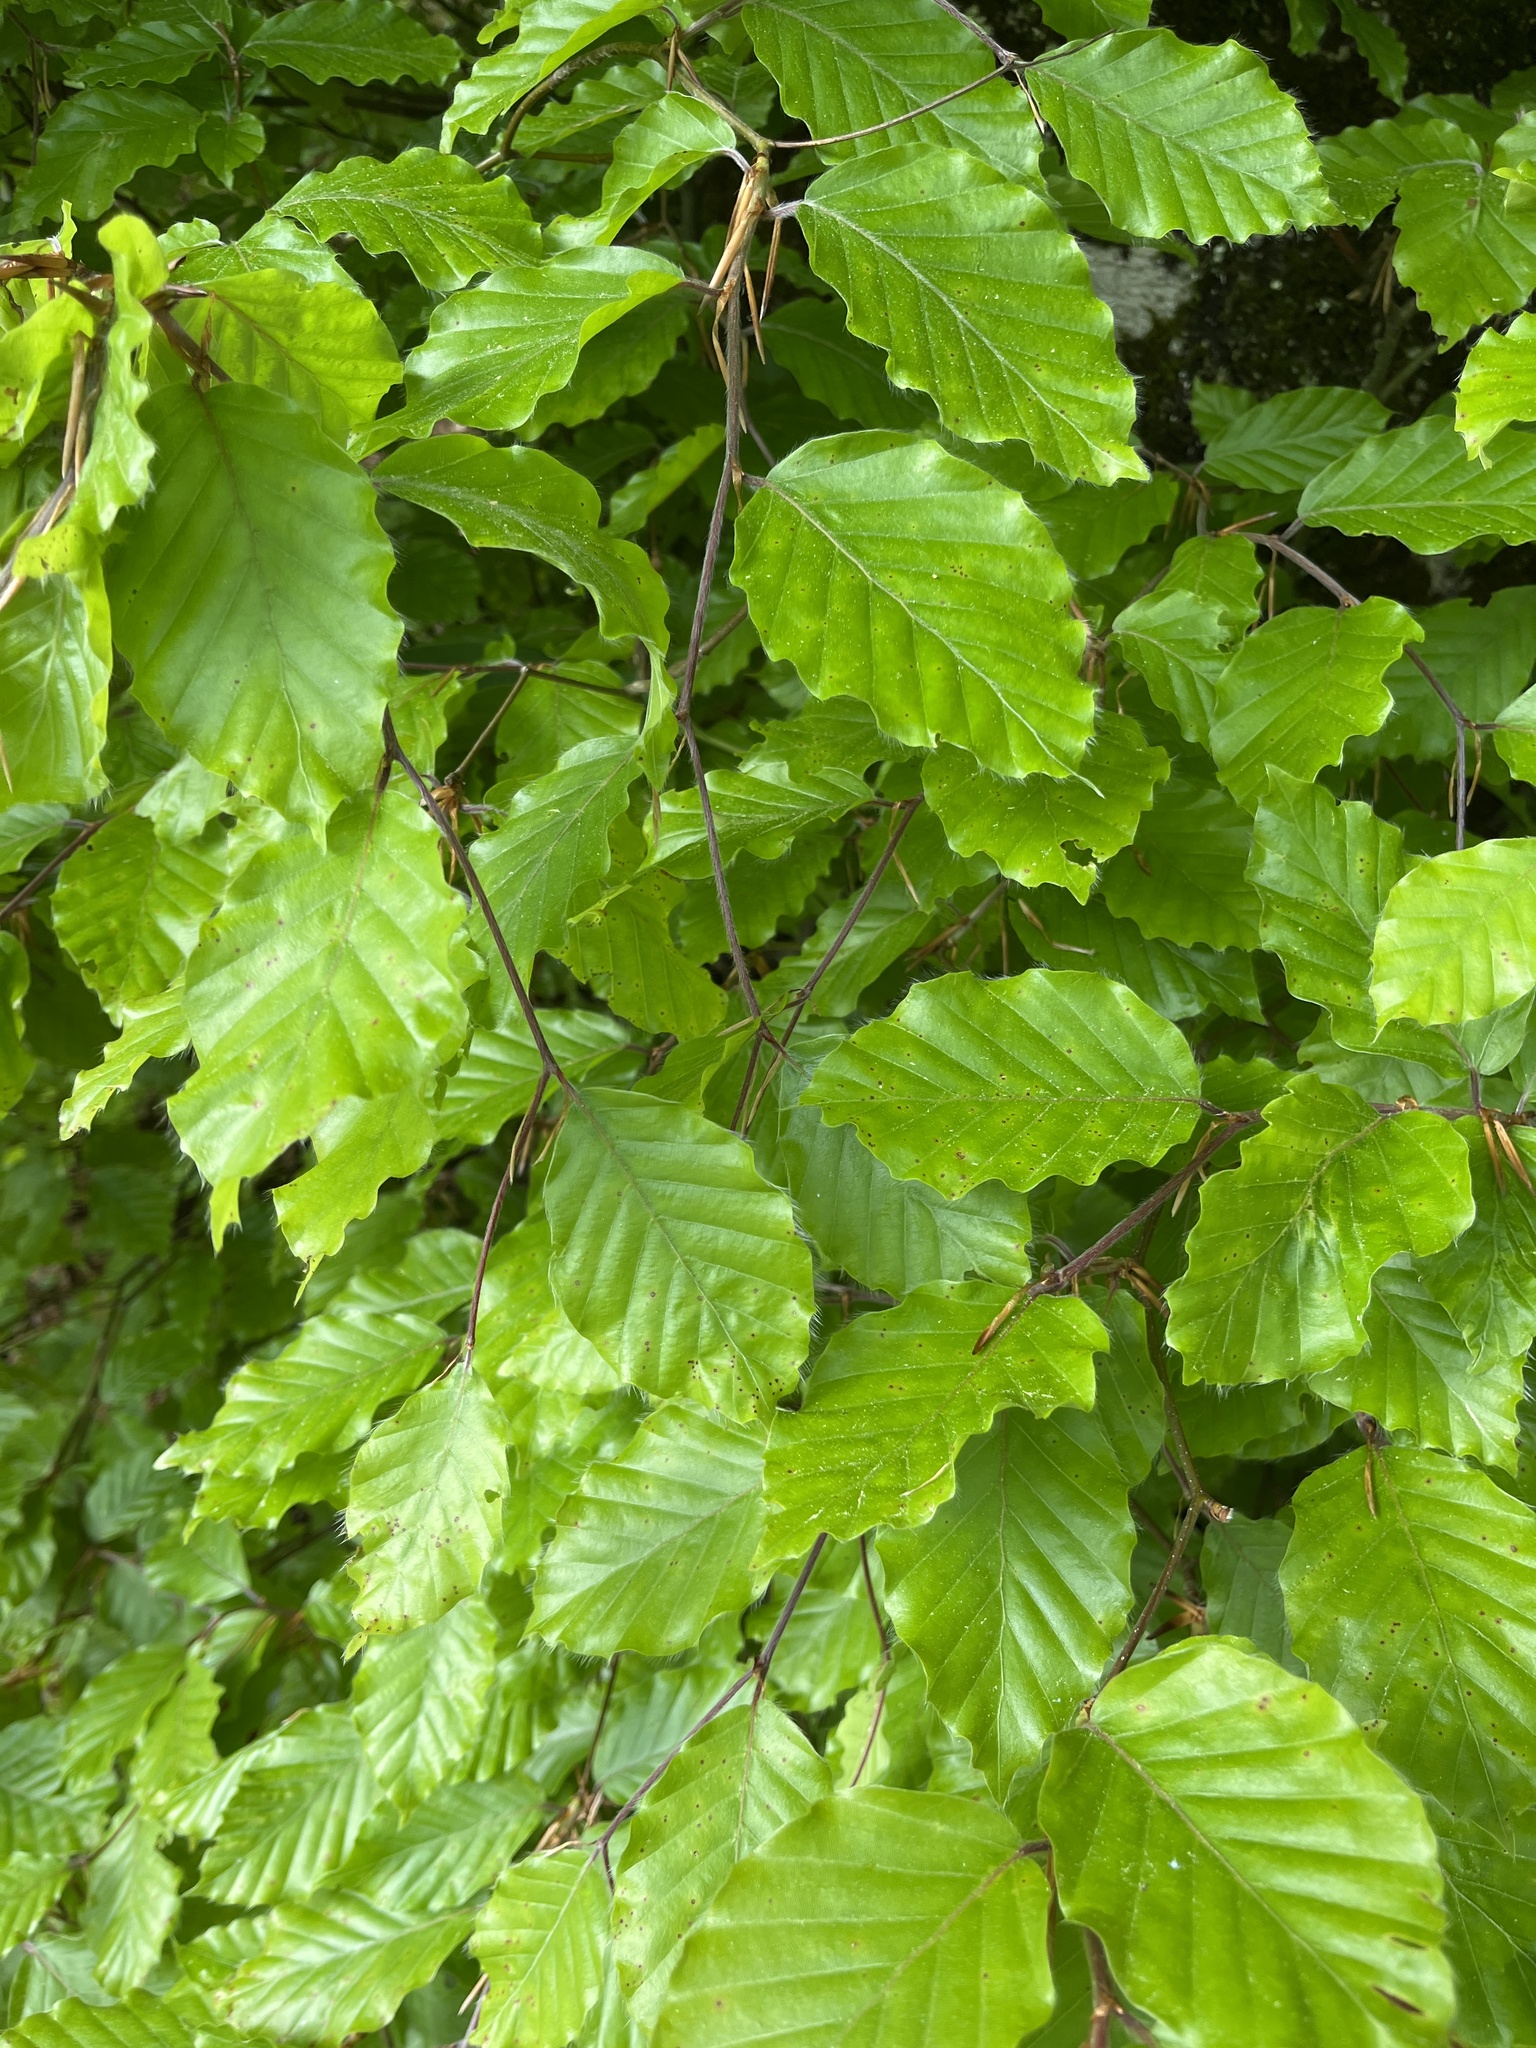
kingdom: Plantae
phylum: Tracheophyta
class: Magnoliopsida
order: Fagales
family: Fagaceae
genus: Fagus
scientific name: Fagus sylvatica
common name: Beech
